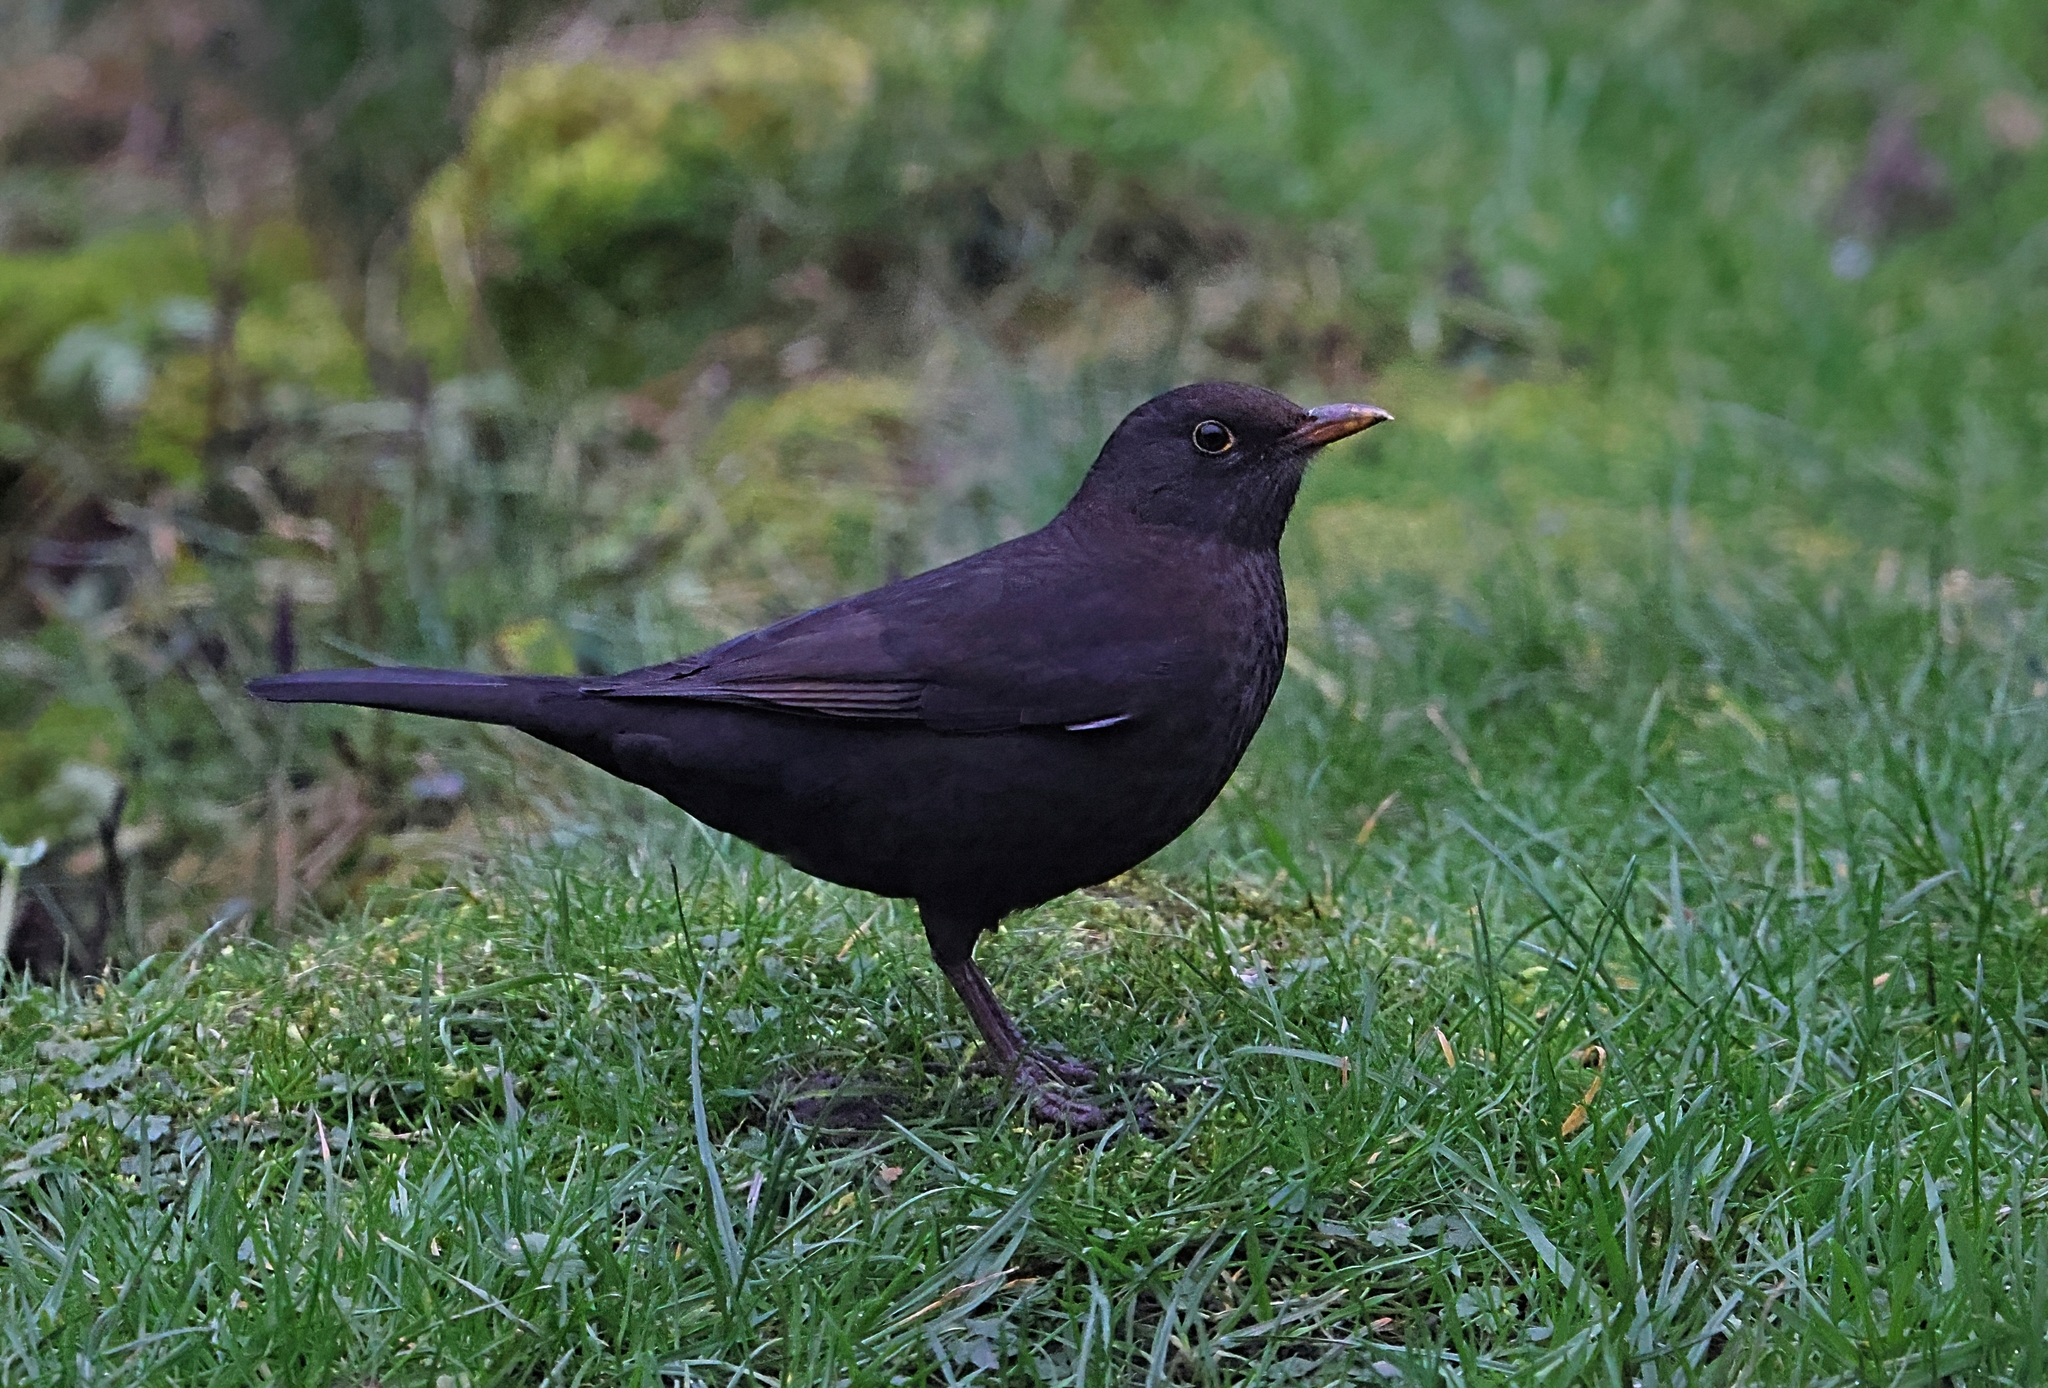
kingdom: Animalia
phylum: Chordata
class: Aves
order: Passeriformes
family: Turdidae
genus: Turdus
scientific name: Turdus merula
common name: Common blackbird
